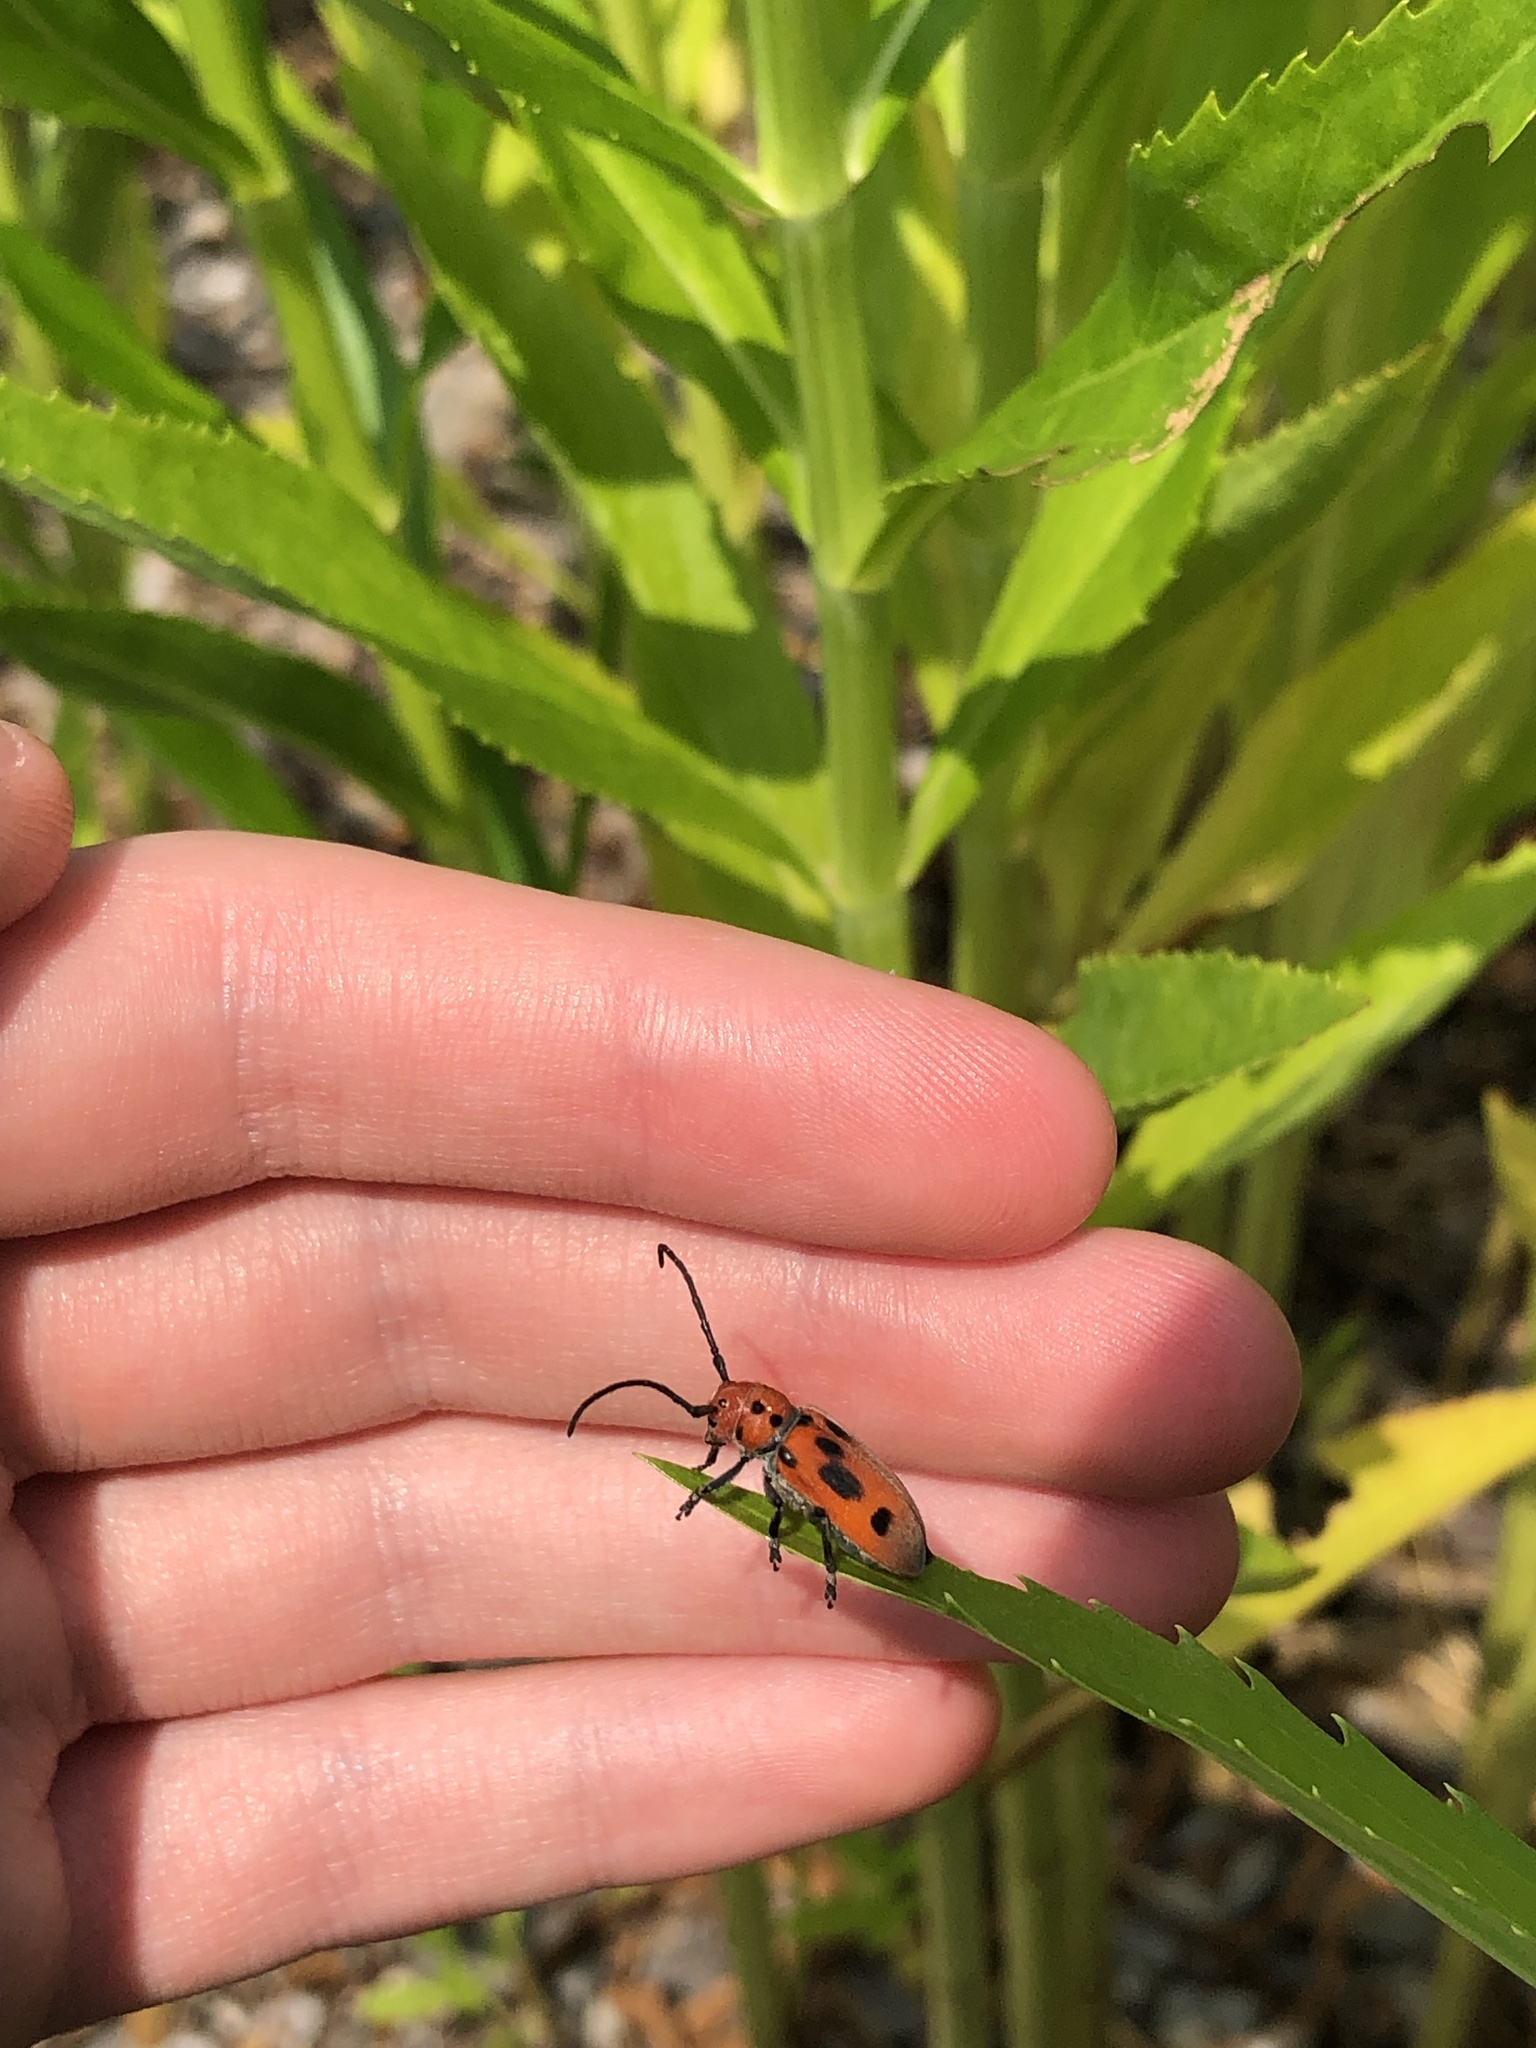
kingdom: Animalia
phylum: Arthropoda
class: Insecta
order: Coleoptera
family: Cerambycidae
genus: Tetraopes
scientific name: Tetraopes tetrophthalmus
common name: Red milkweed beetle
